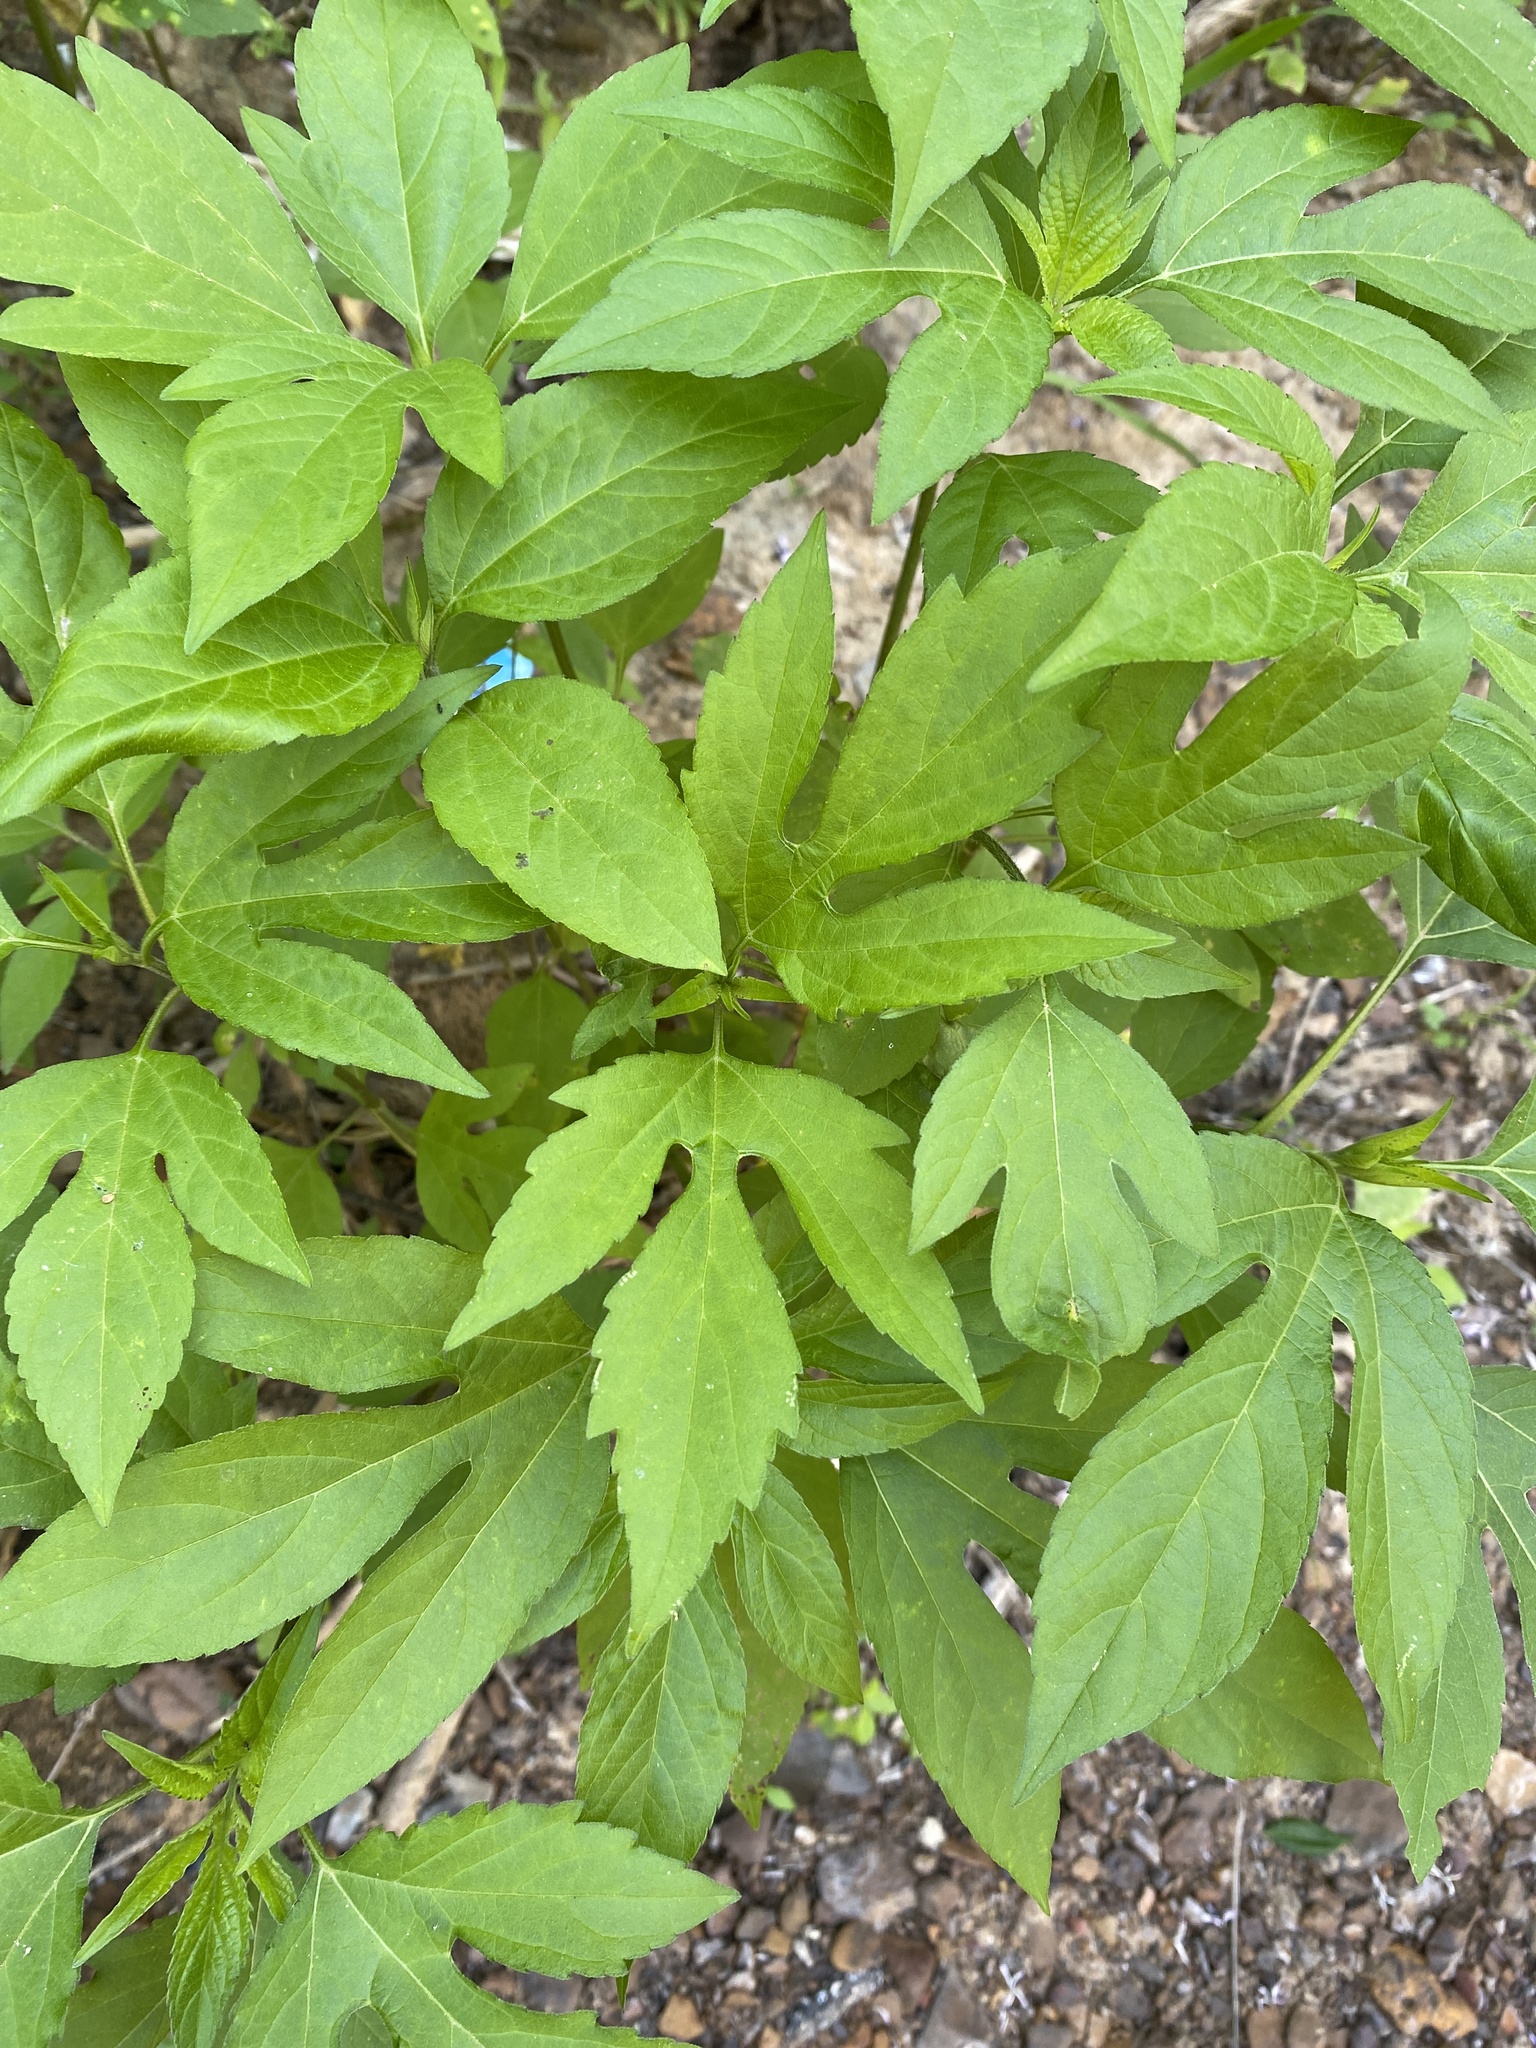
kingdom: Plantae
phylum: Tracheophyta
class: Magnoliopsida
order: Asterales
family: Asteraceae
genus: Ambrosia
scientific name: Ambrosia trifida
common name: Giant ragweed
